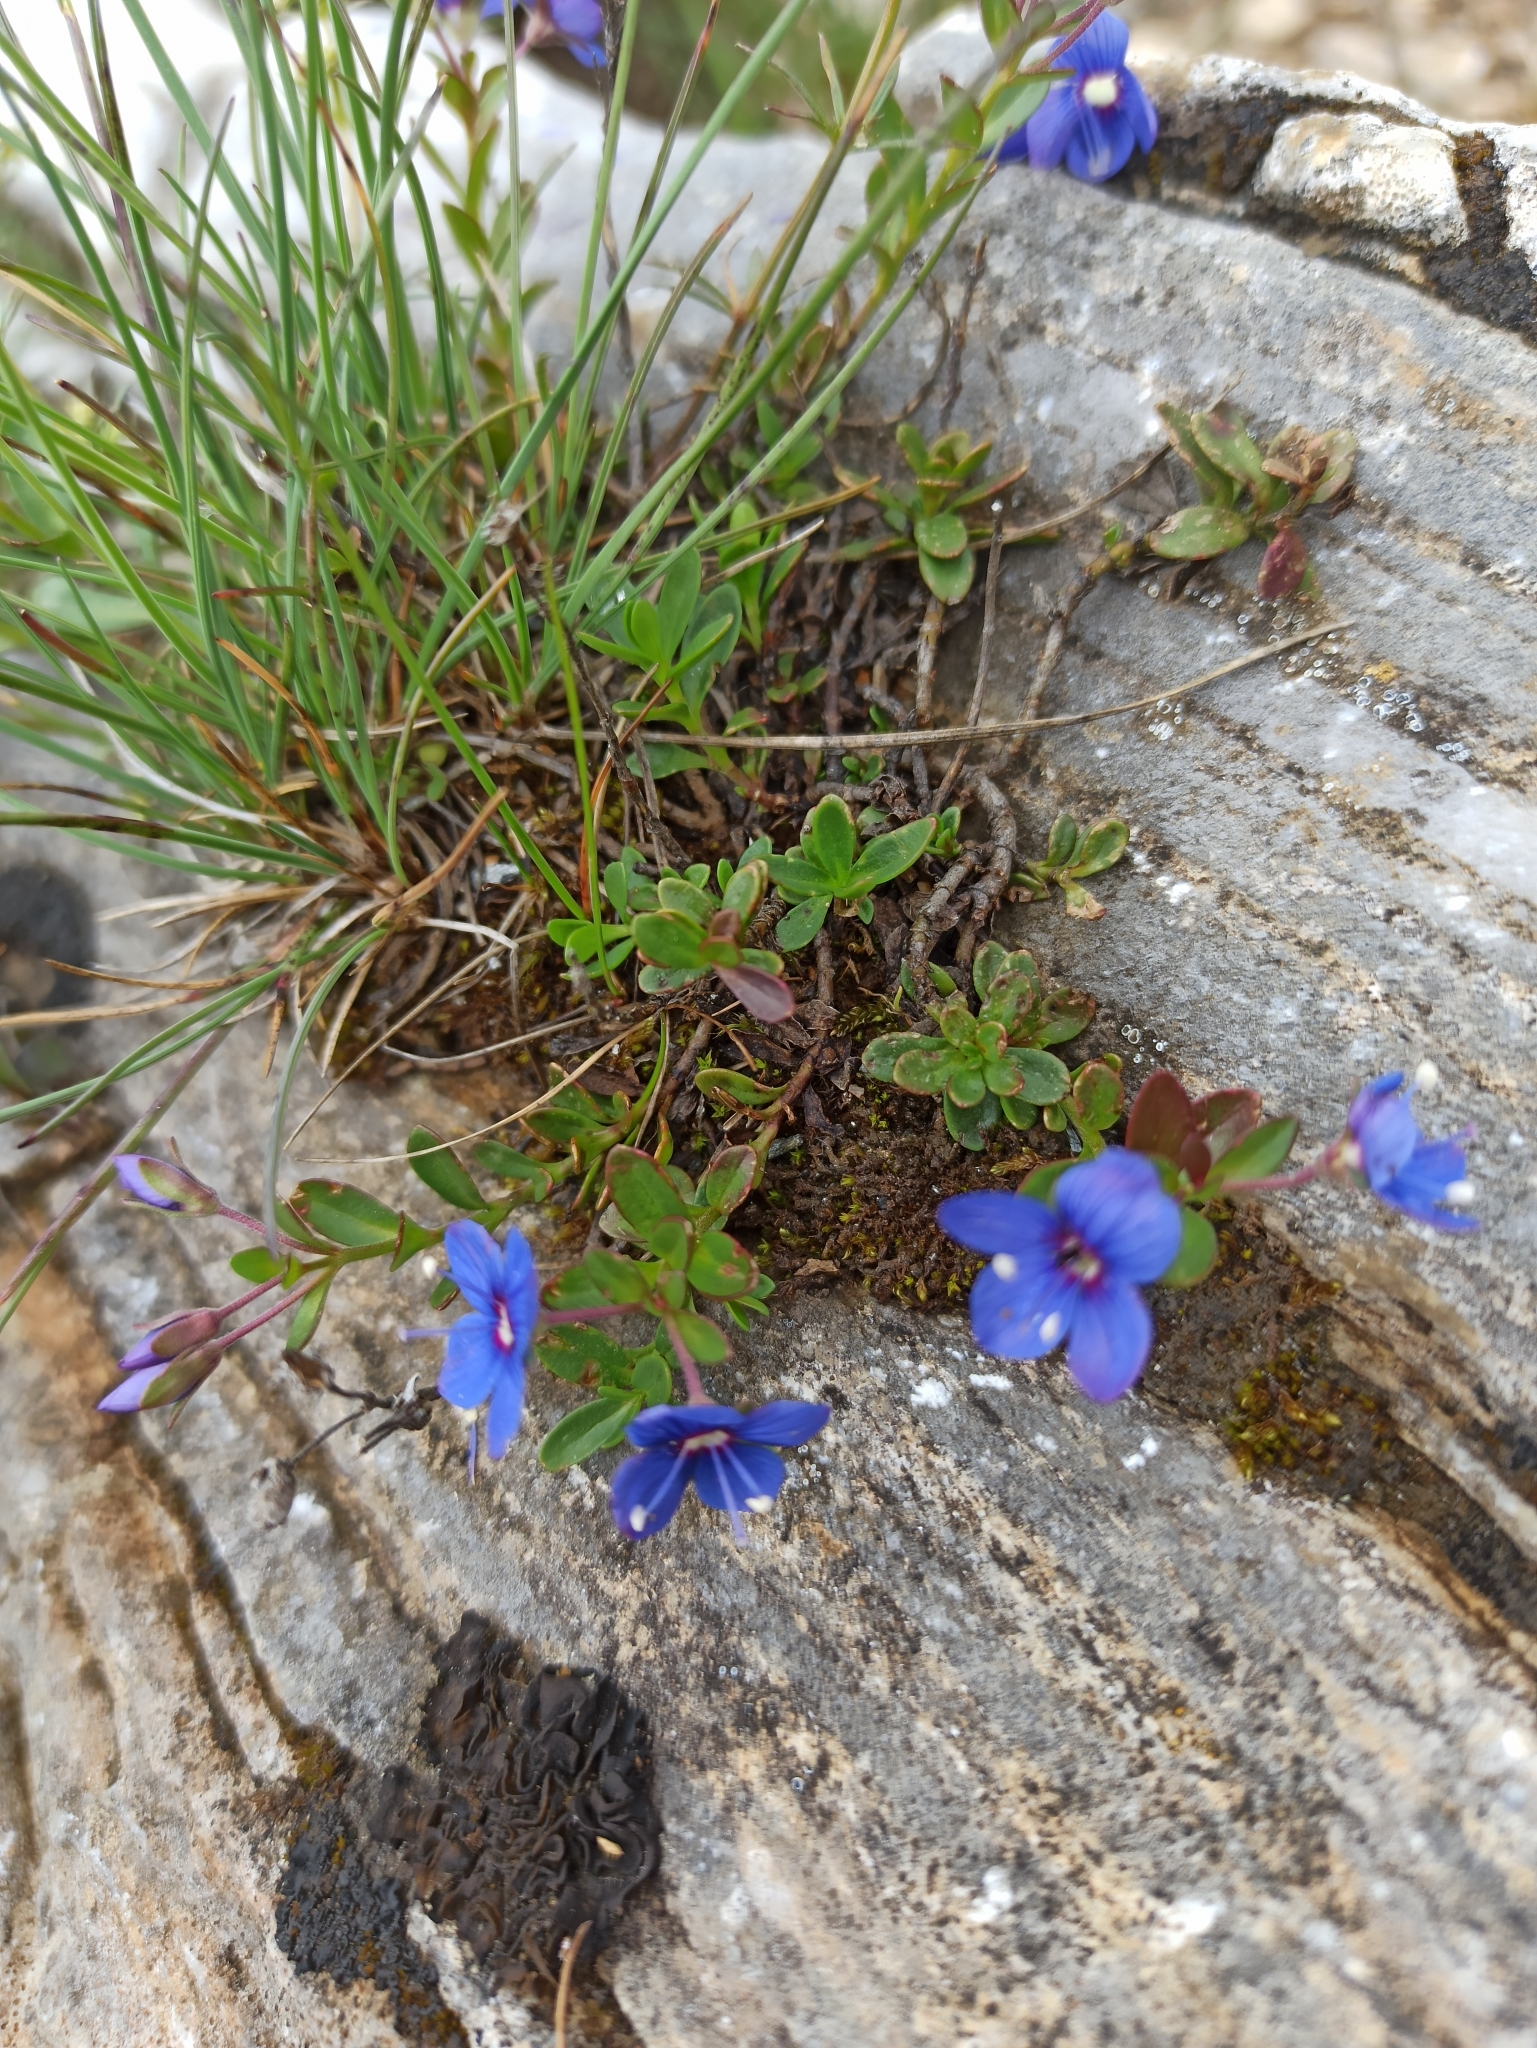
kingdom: Plantae
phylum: Tracheophyta
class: Magnoliopsida
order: Lamiales
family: Plantaginaceae
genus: Veronica
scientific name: Veronica fruticans
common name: Rock speedwell
